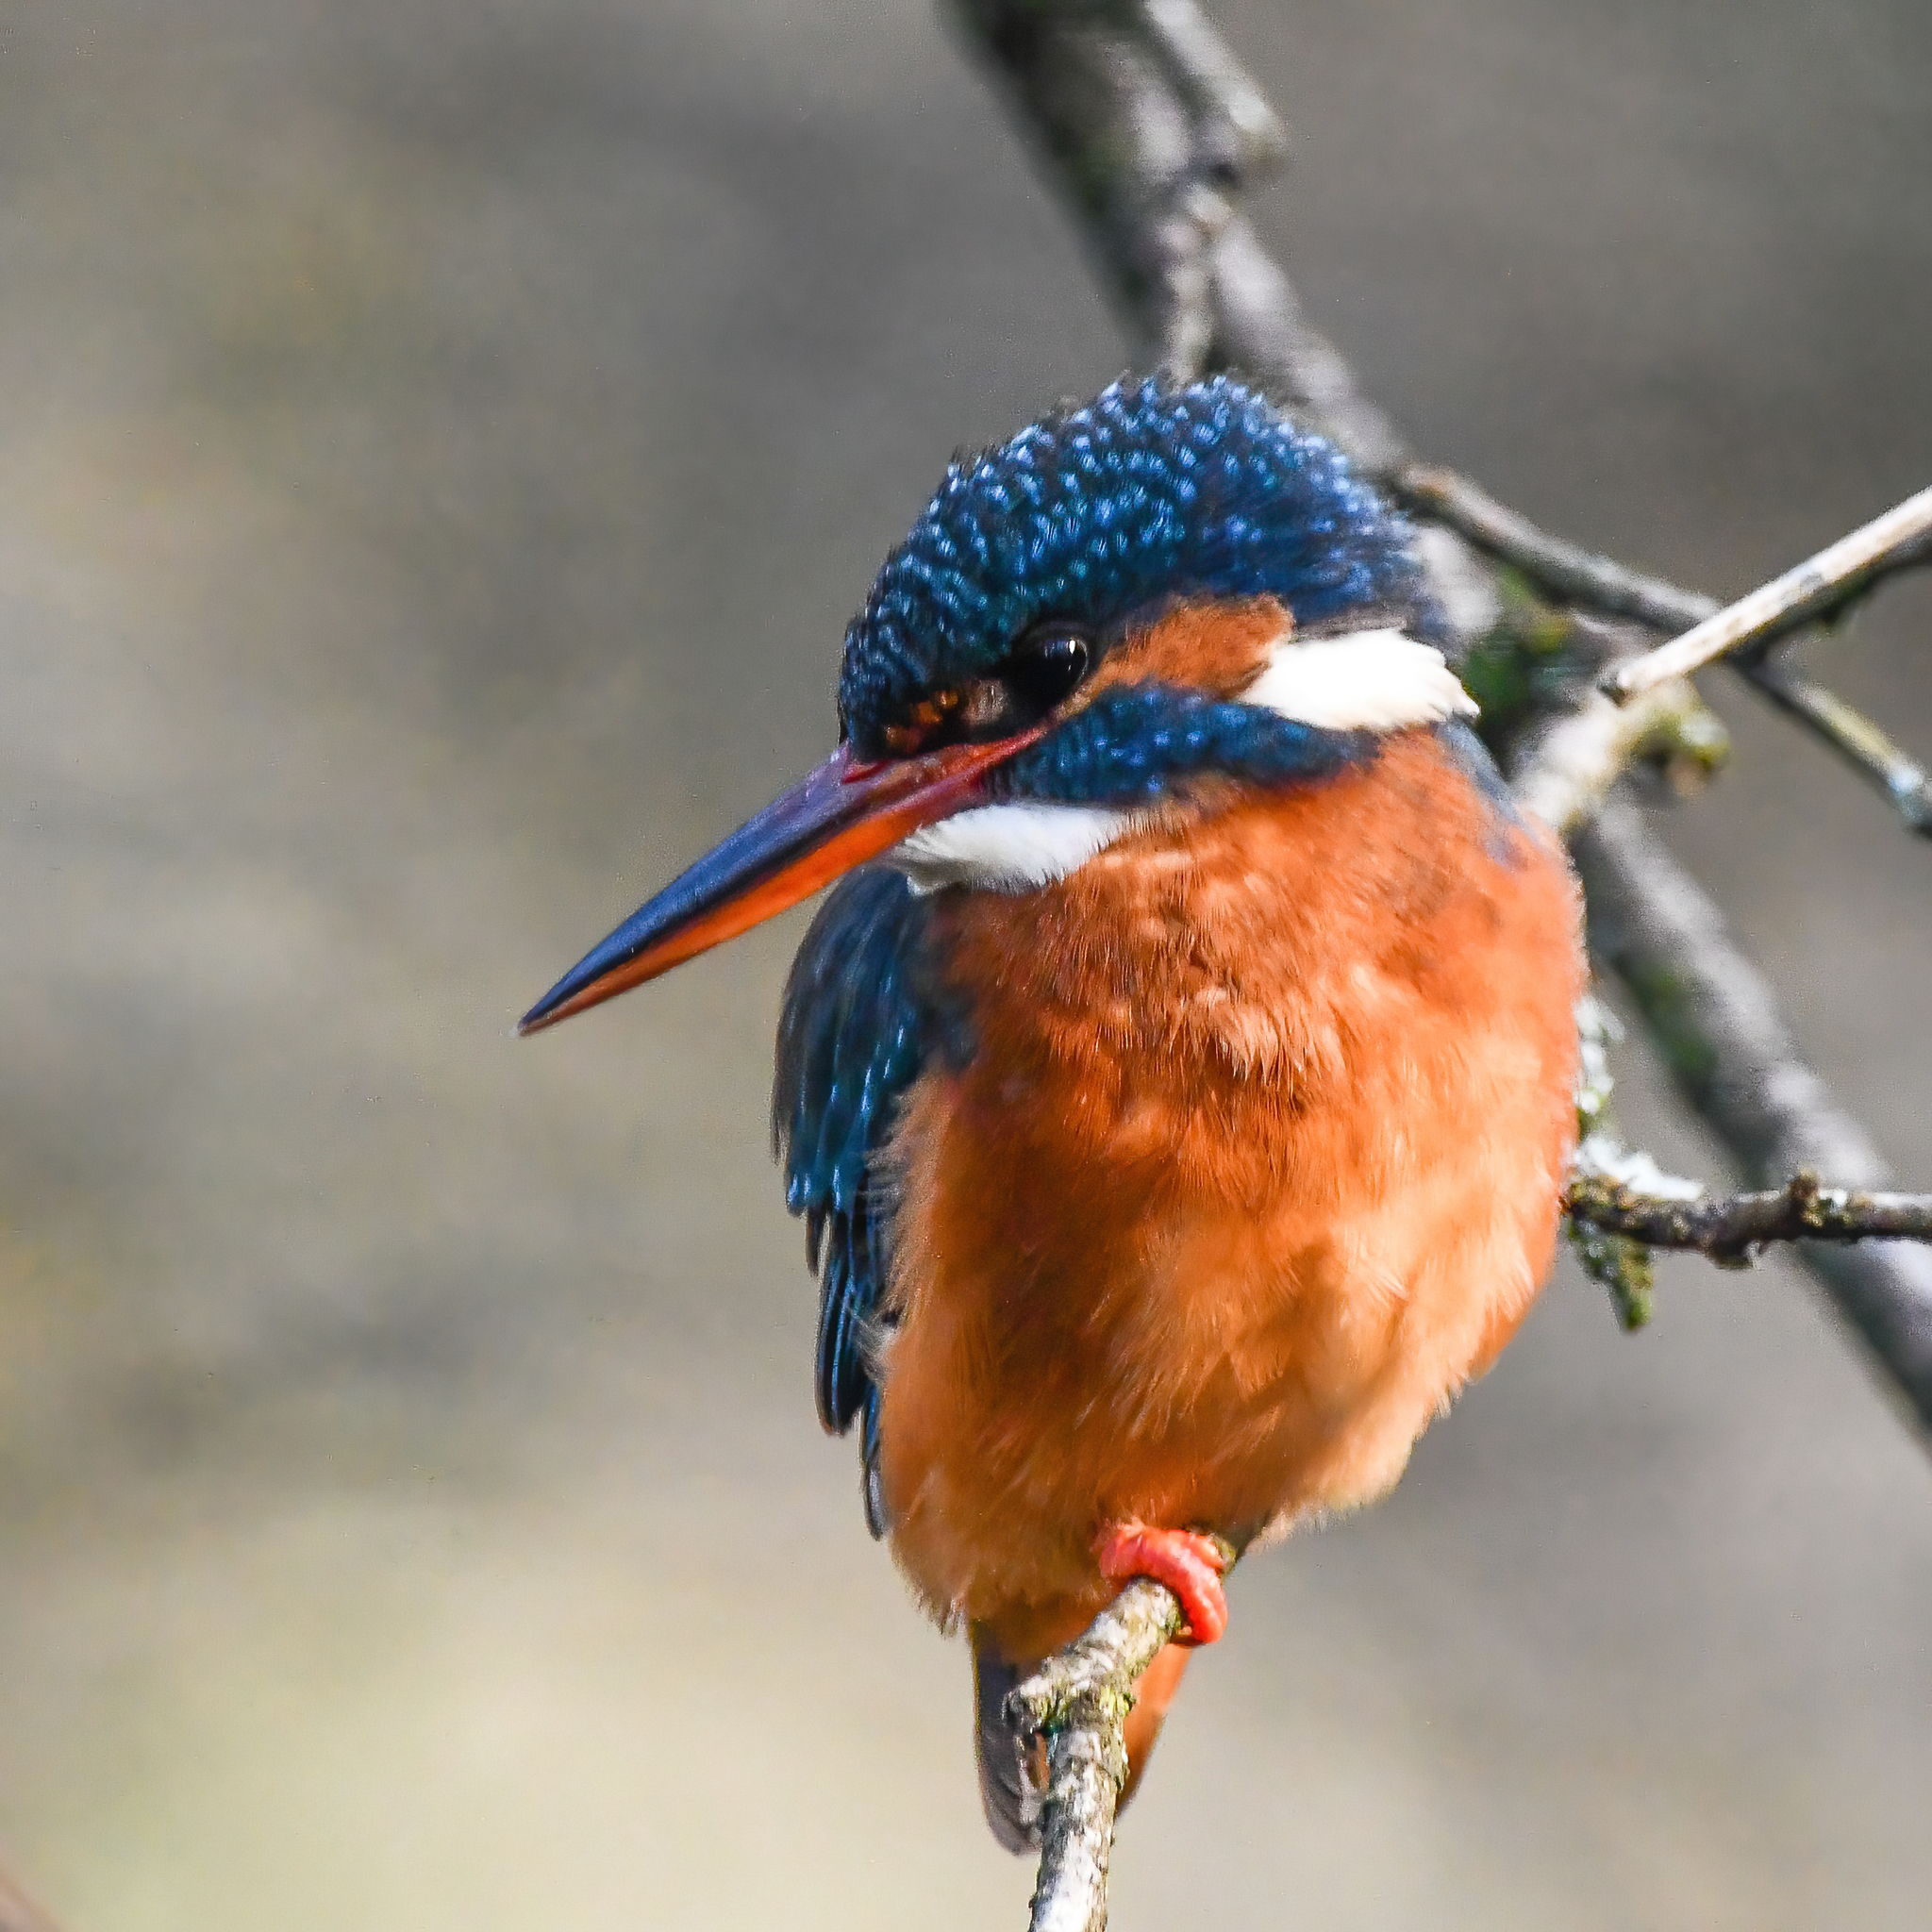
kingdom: Animalia
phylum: Chordata
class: Aves
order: Coraciiformes
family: Alcedinidae
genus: Alcedo
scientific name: Alcedo atthis
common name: Common kingfisher
